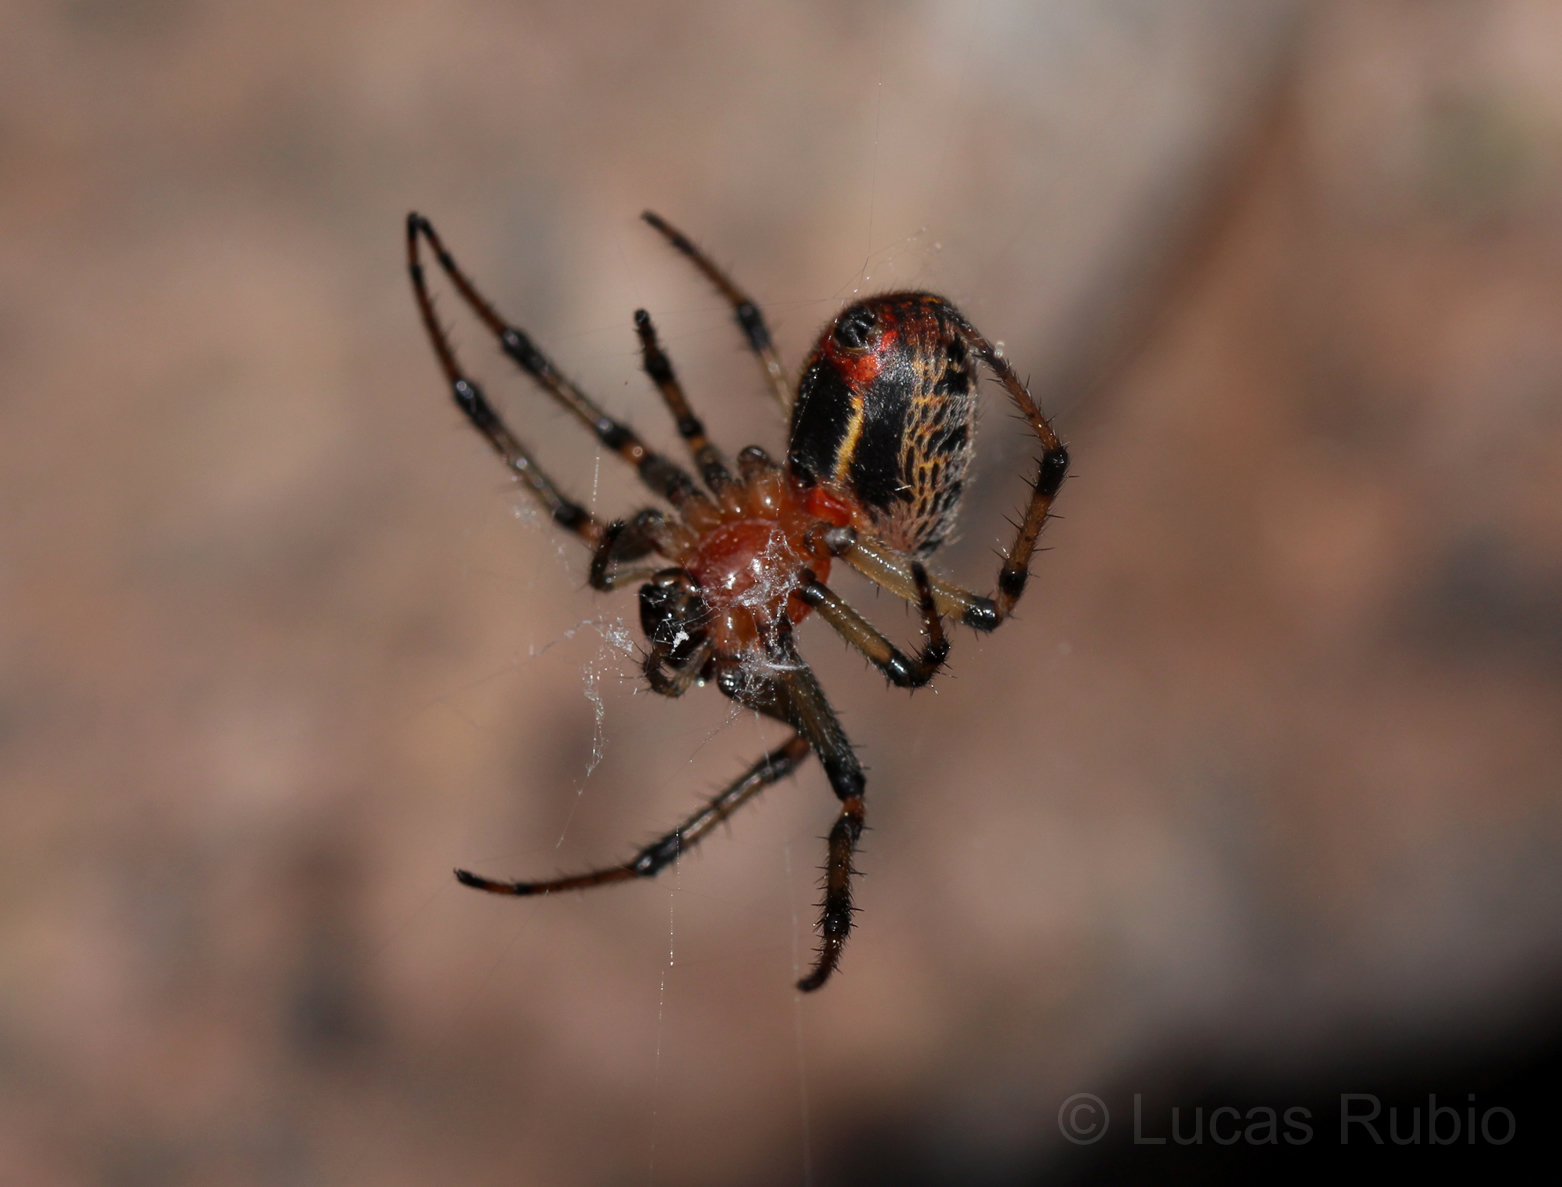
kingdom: Animalia
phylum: Arthropoda
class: Arachnida
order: Araneae
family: Araneidae
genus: Alpaida
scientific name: Alpaida veniliae
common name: Orb weavers
